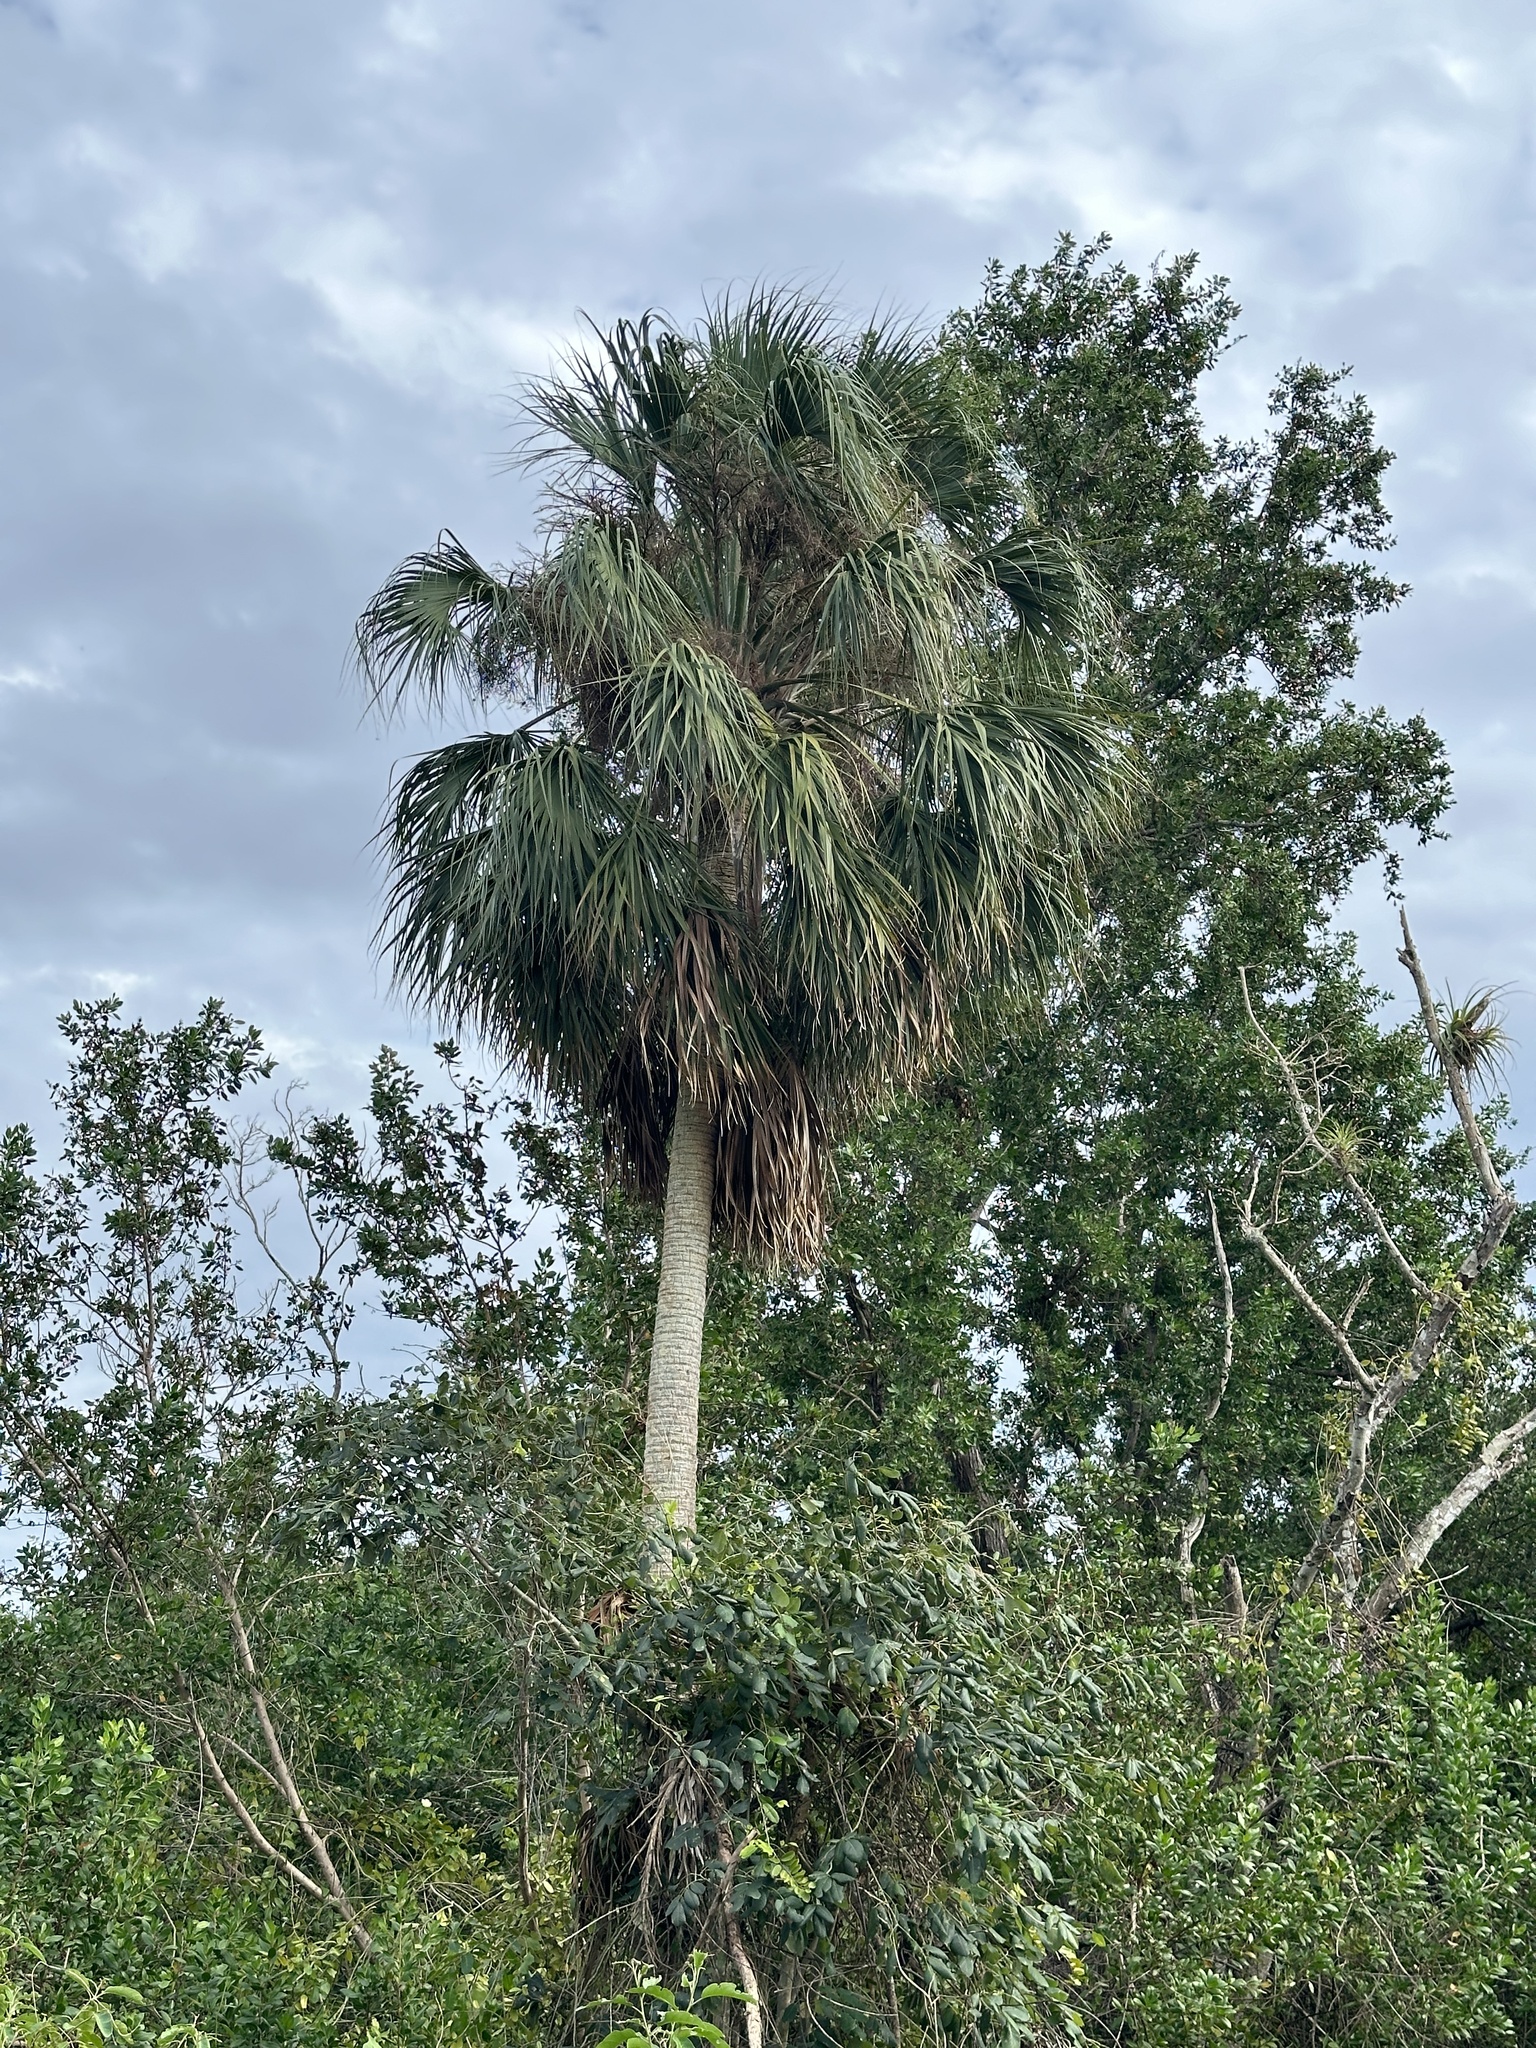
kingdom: Plantae
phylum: Tracheophyta
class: Liliopsida
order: Arecales
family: Arecaceae
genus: Sabal
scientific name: Sabal palmetto
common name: Blue palmetto
